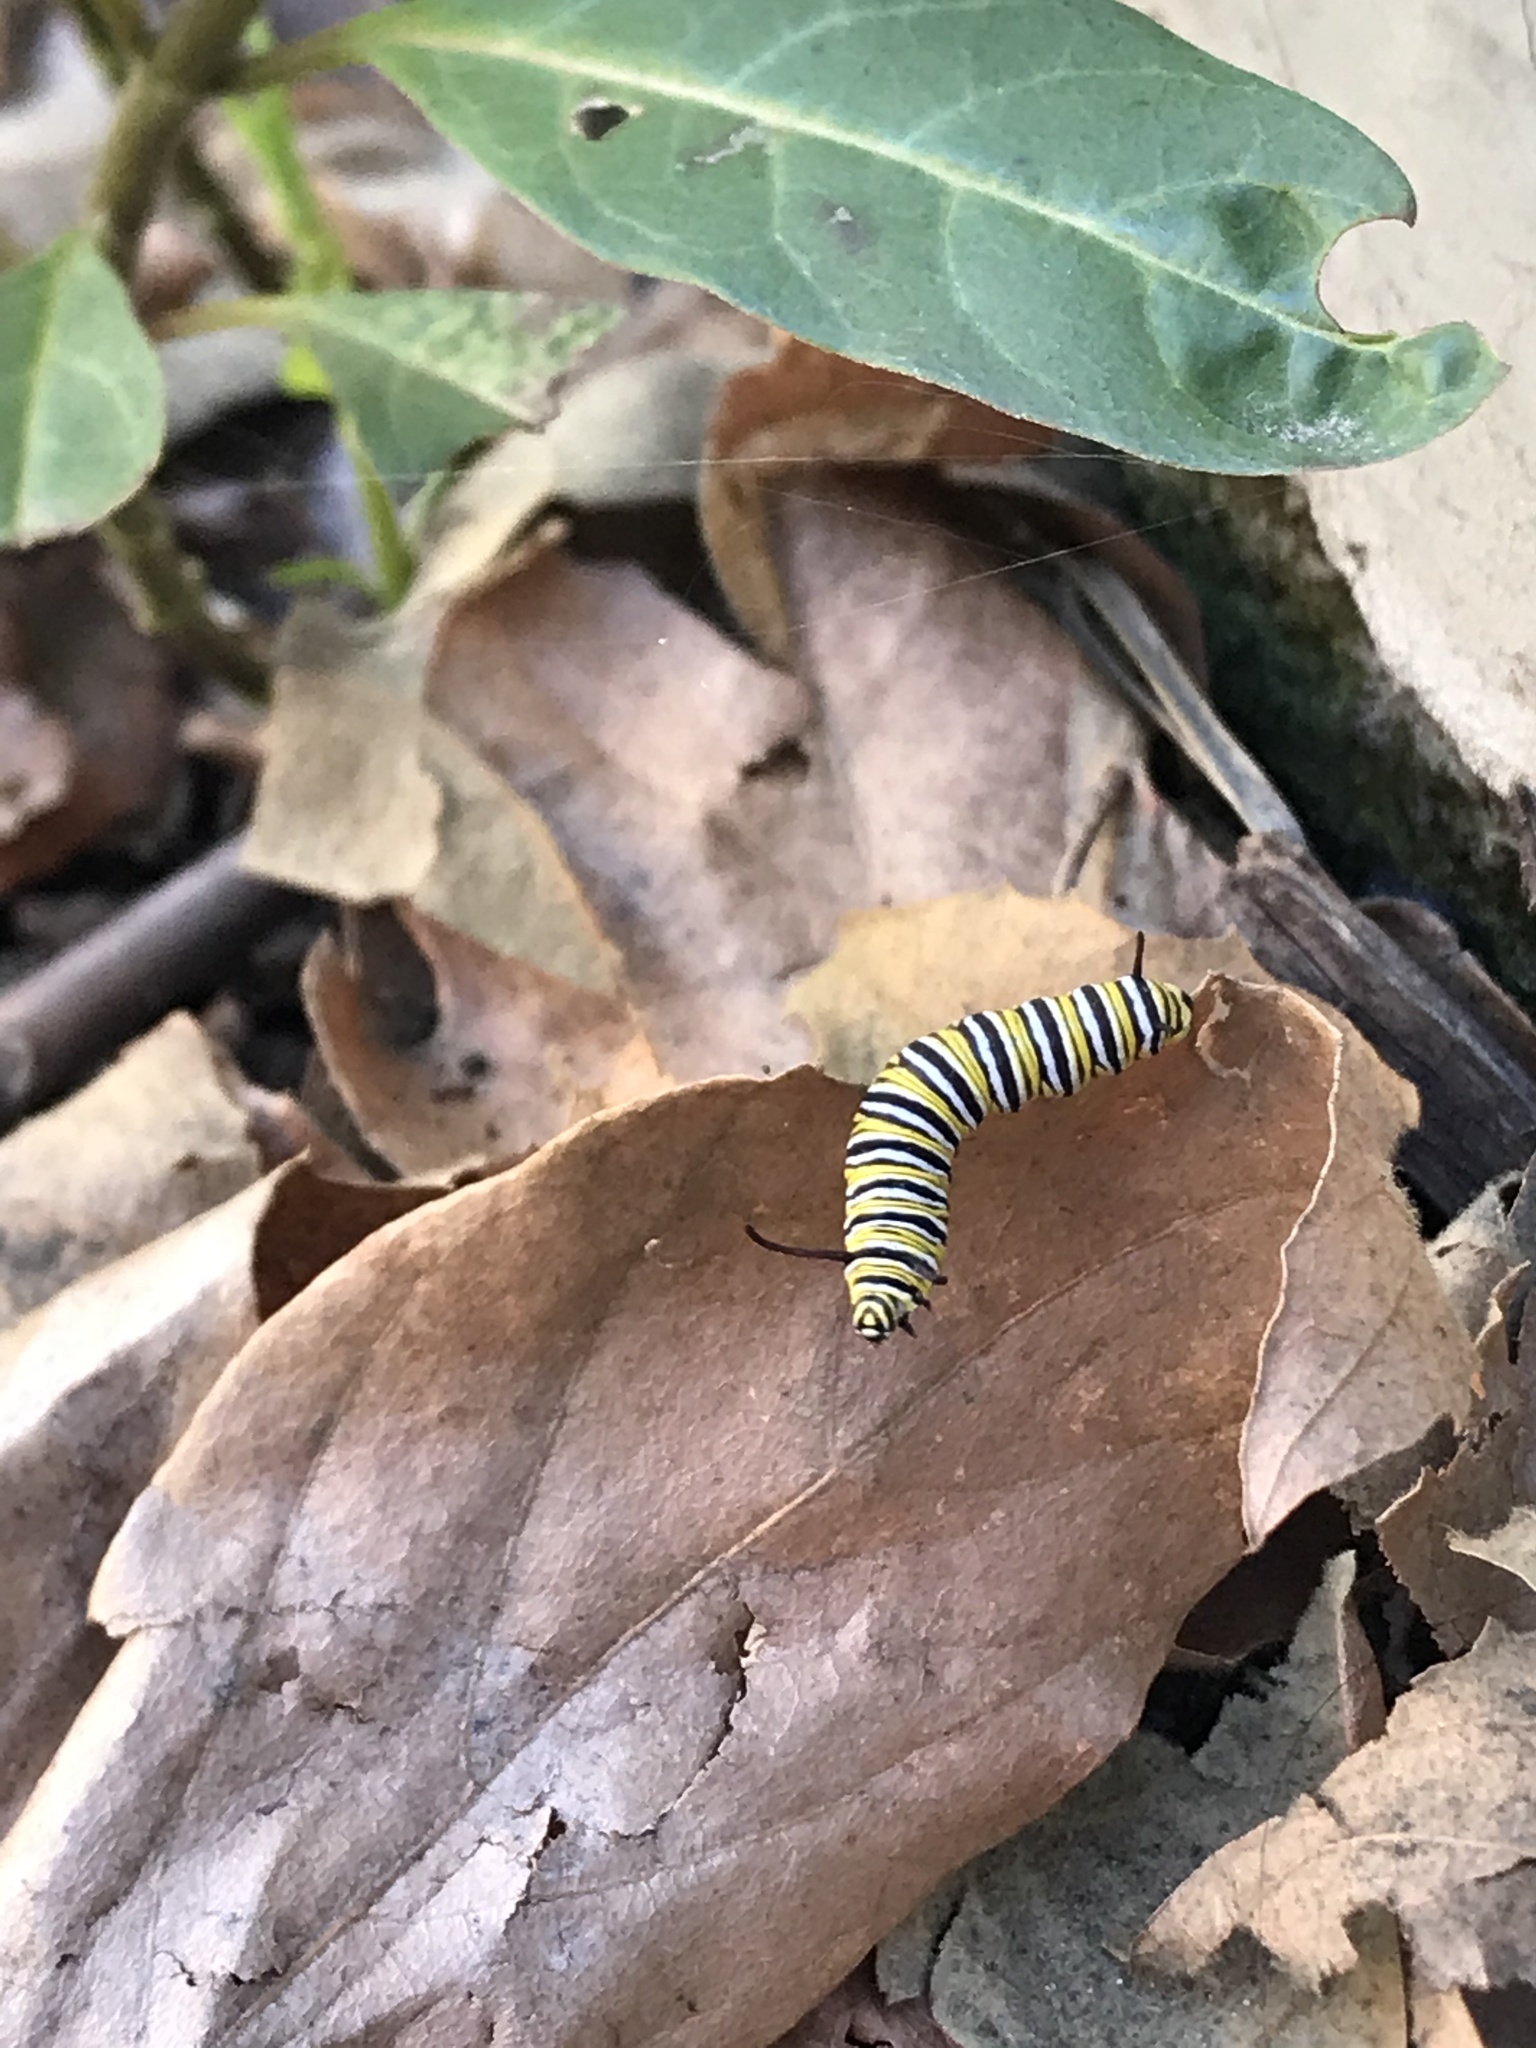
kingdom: Animalia
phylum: Arthropoda
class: Insecta
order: Lepidoptera
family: Nymphalidae
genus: Danaus
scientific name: Danaus plexippus
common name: Monarch
